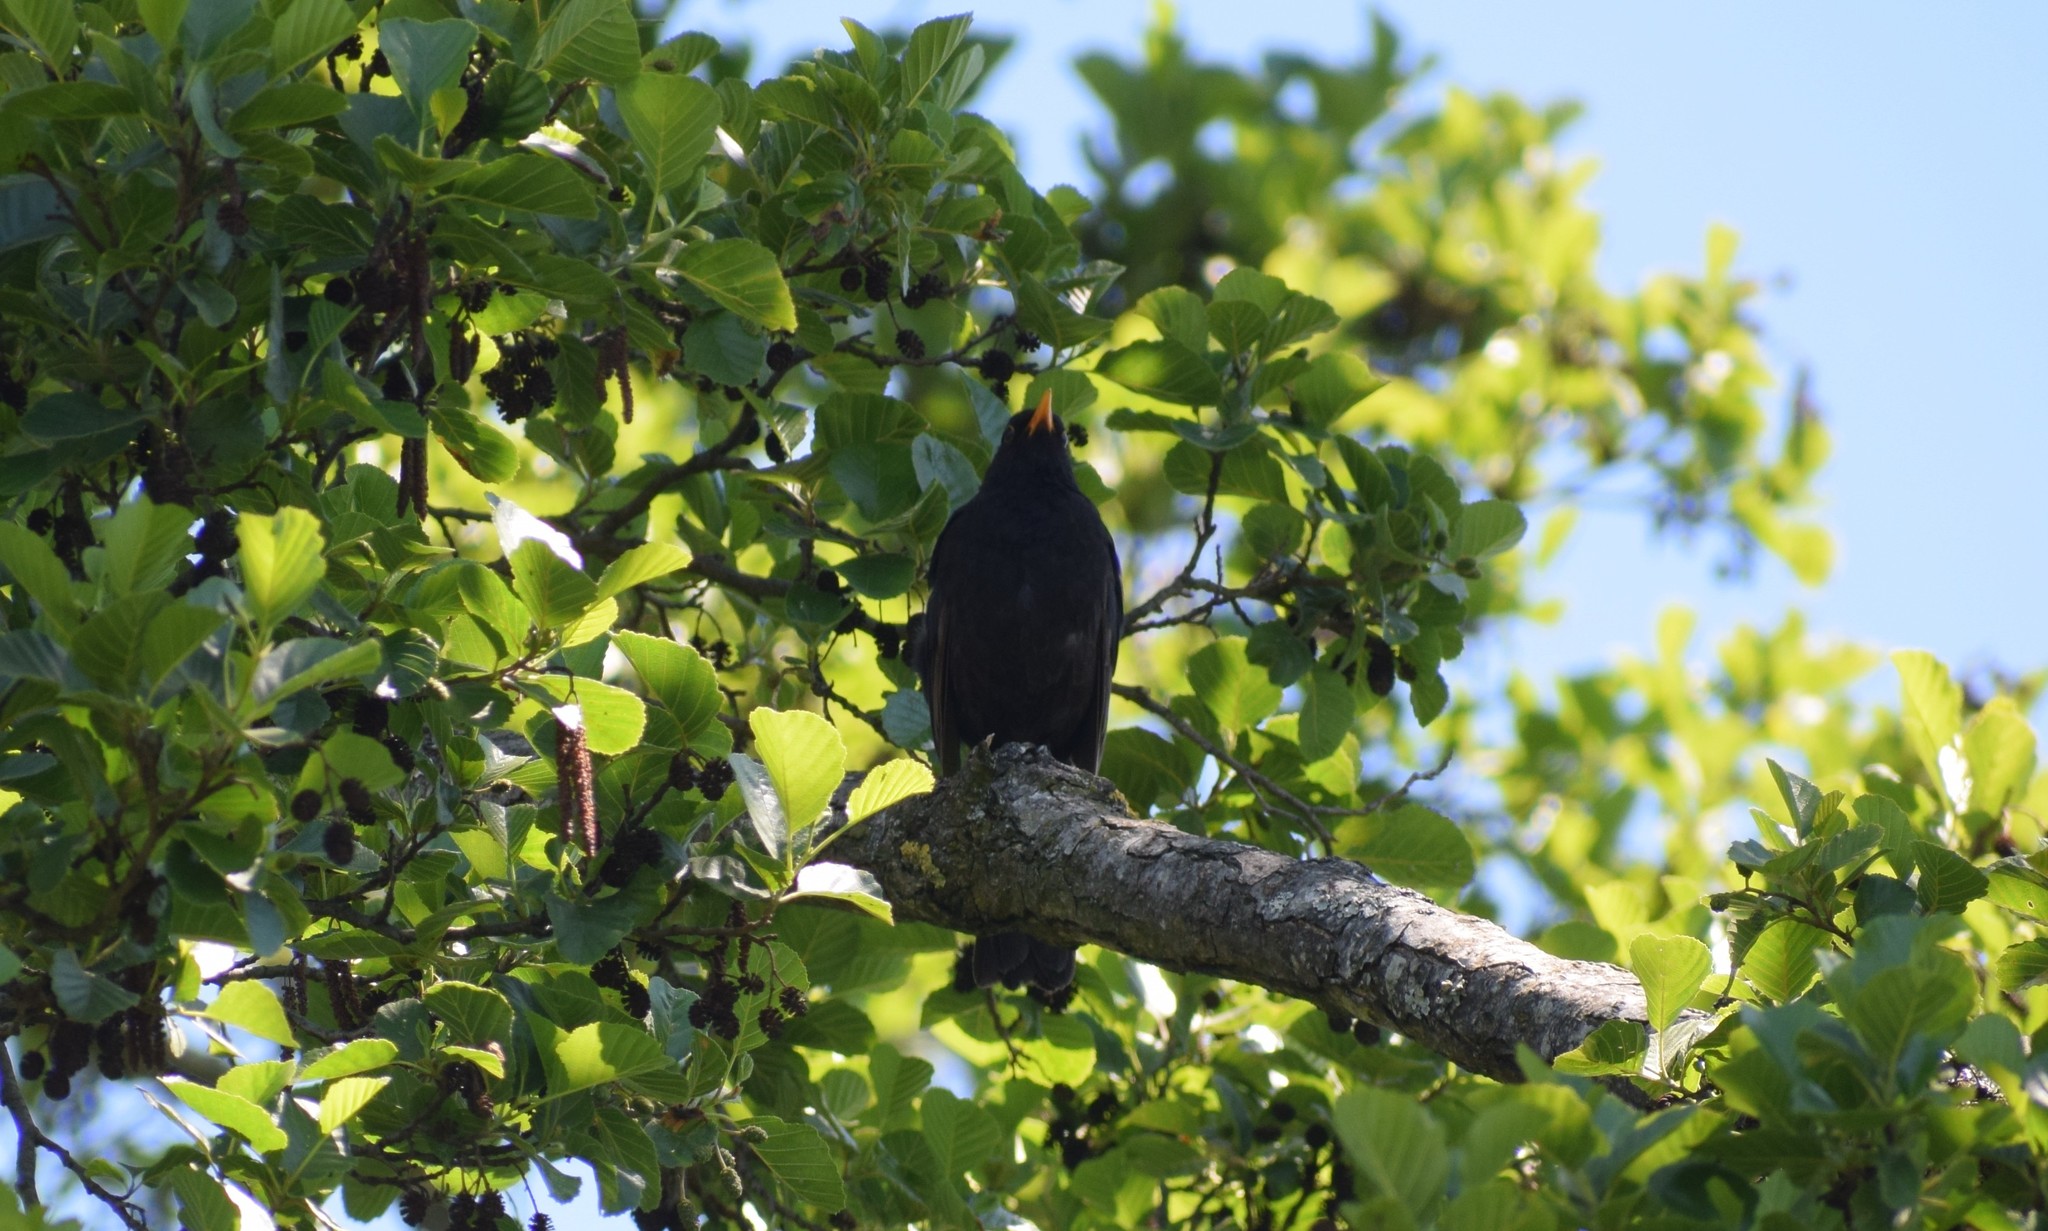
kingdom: Animalia
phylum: Chordata
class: Aves
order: Passeriformes
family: Turdidae
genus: Turdus
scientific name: Turdus merula
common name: Common blackbird
